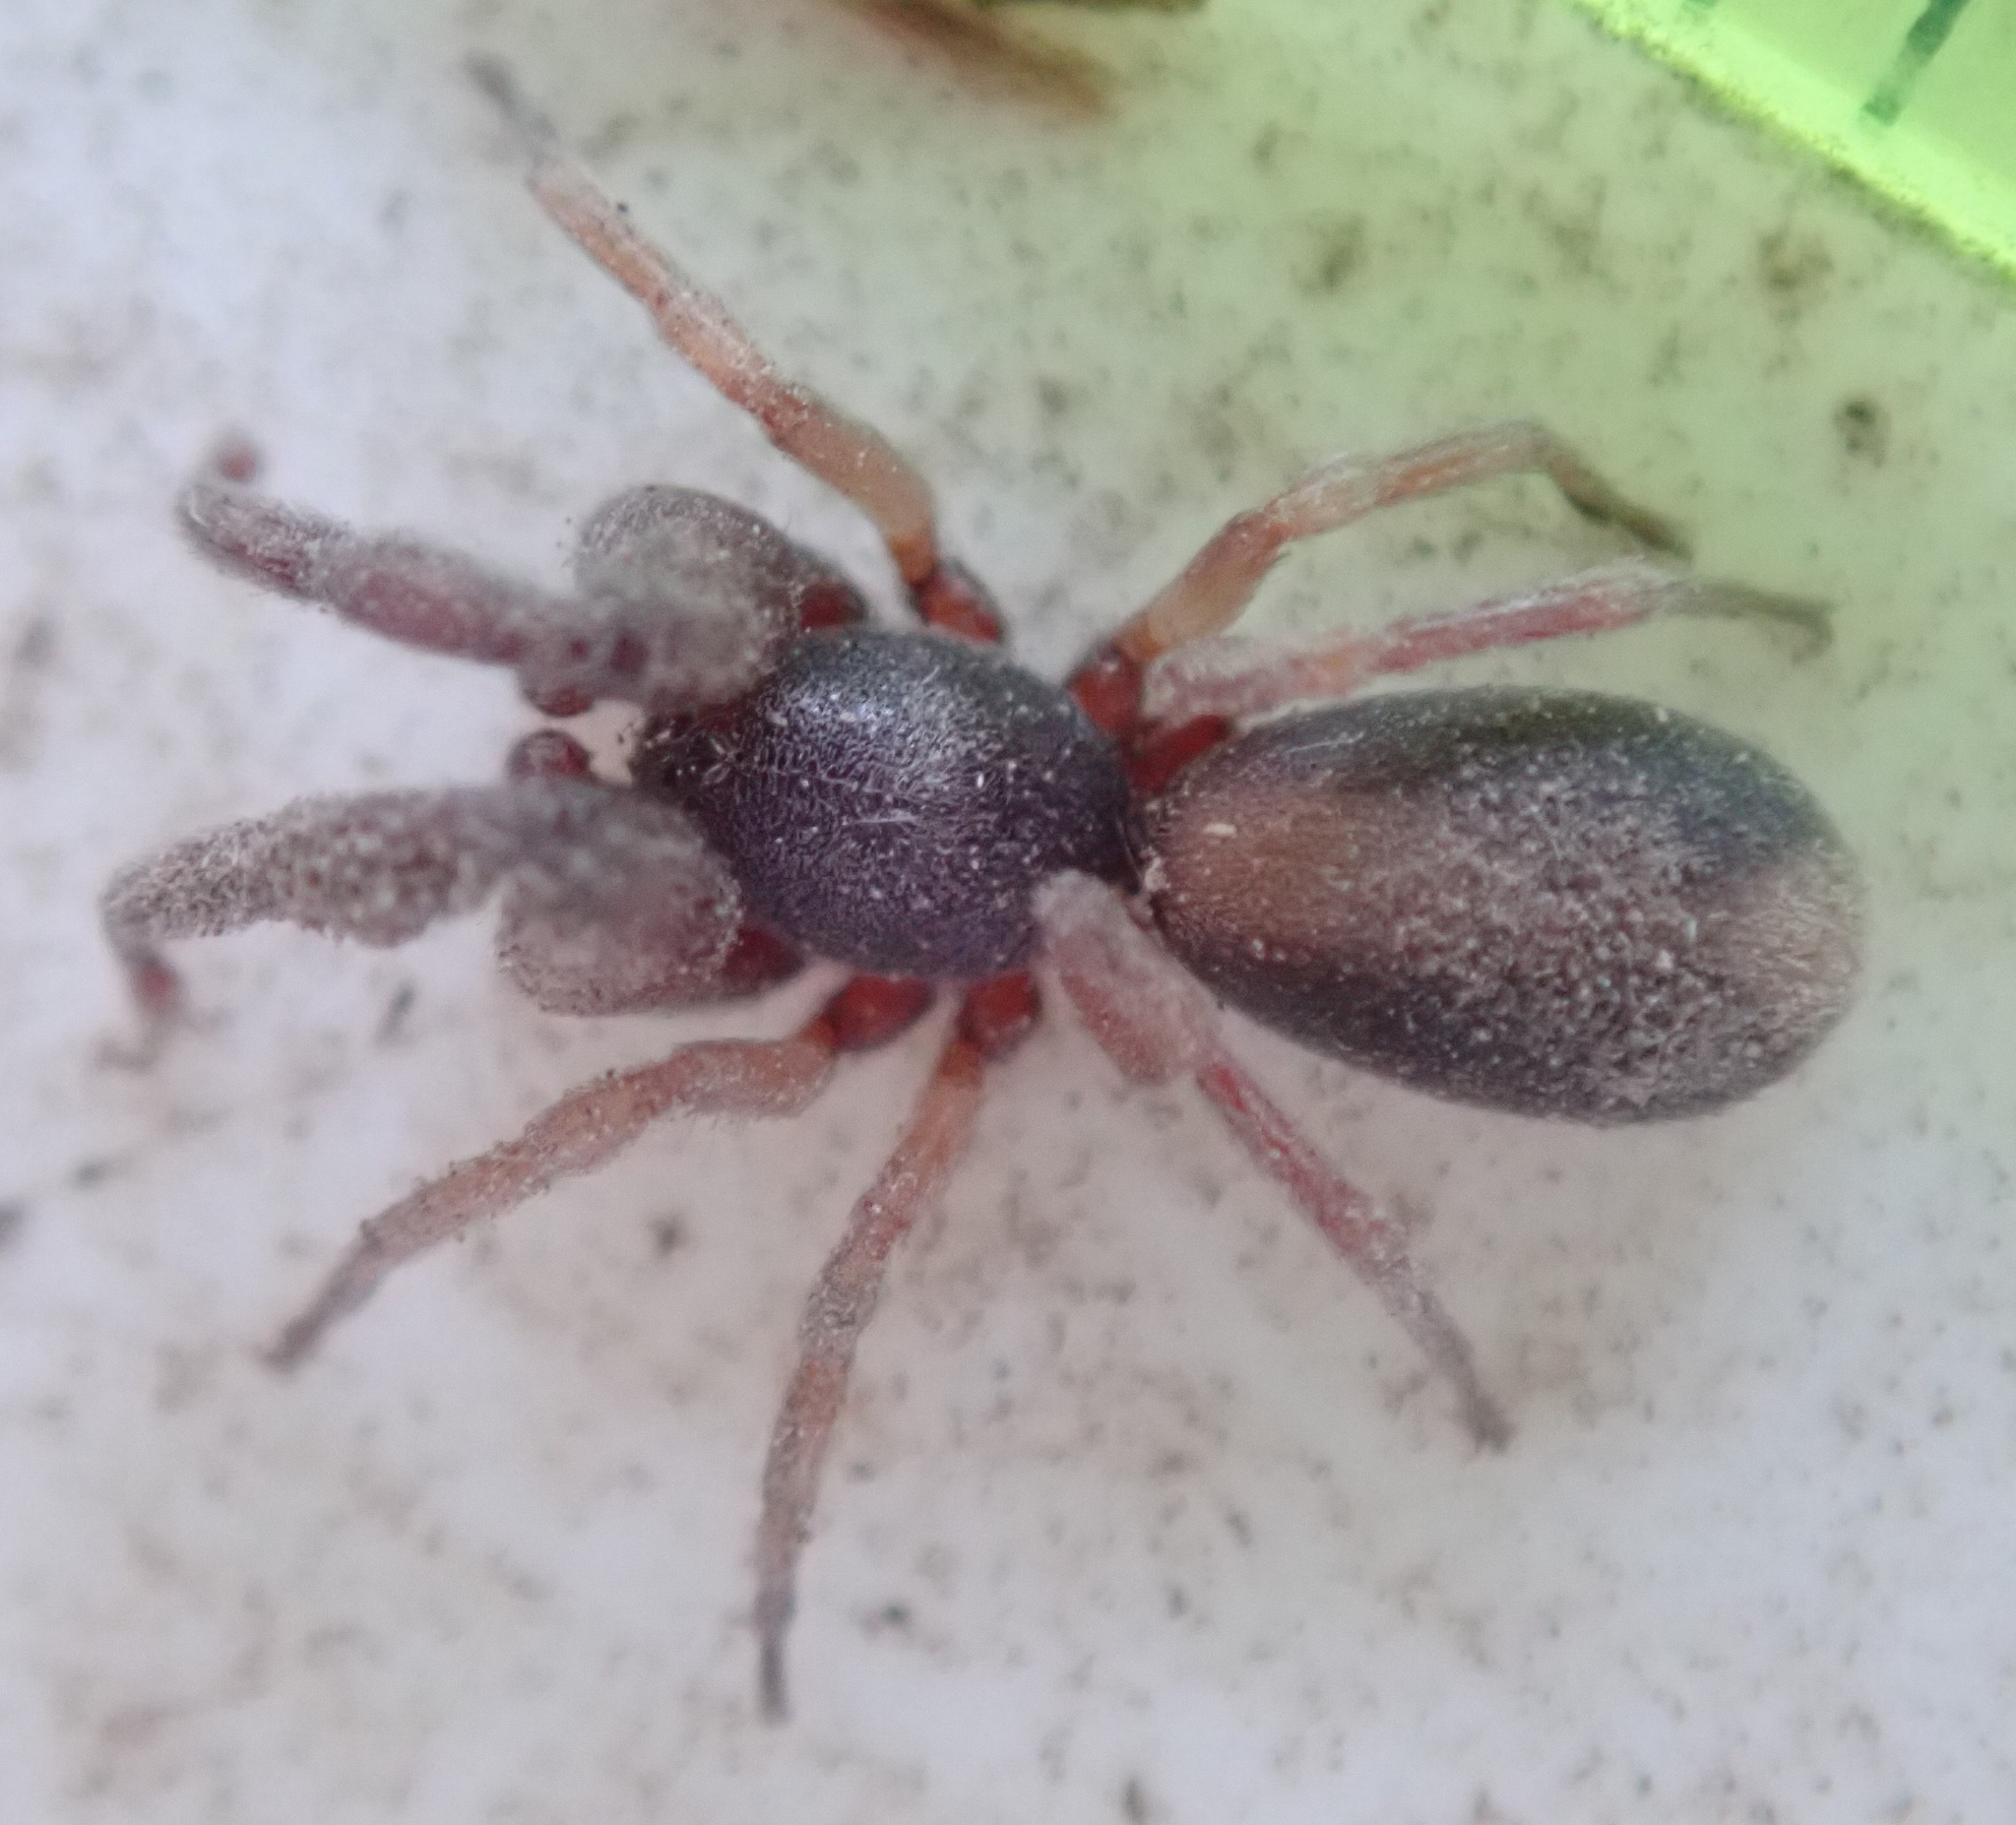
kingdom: Animalia
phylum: Arthropoda
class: Arachnida
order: Araneae
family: Palpimanidae
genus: Diaphorocellus
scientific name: Diaphorocellus biplagiatus
